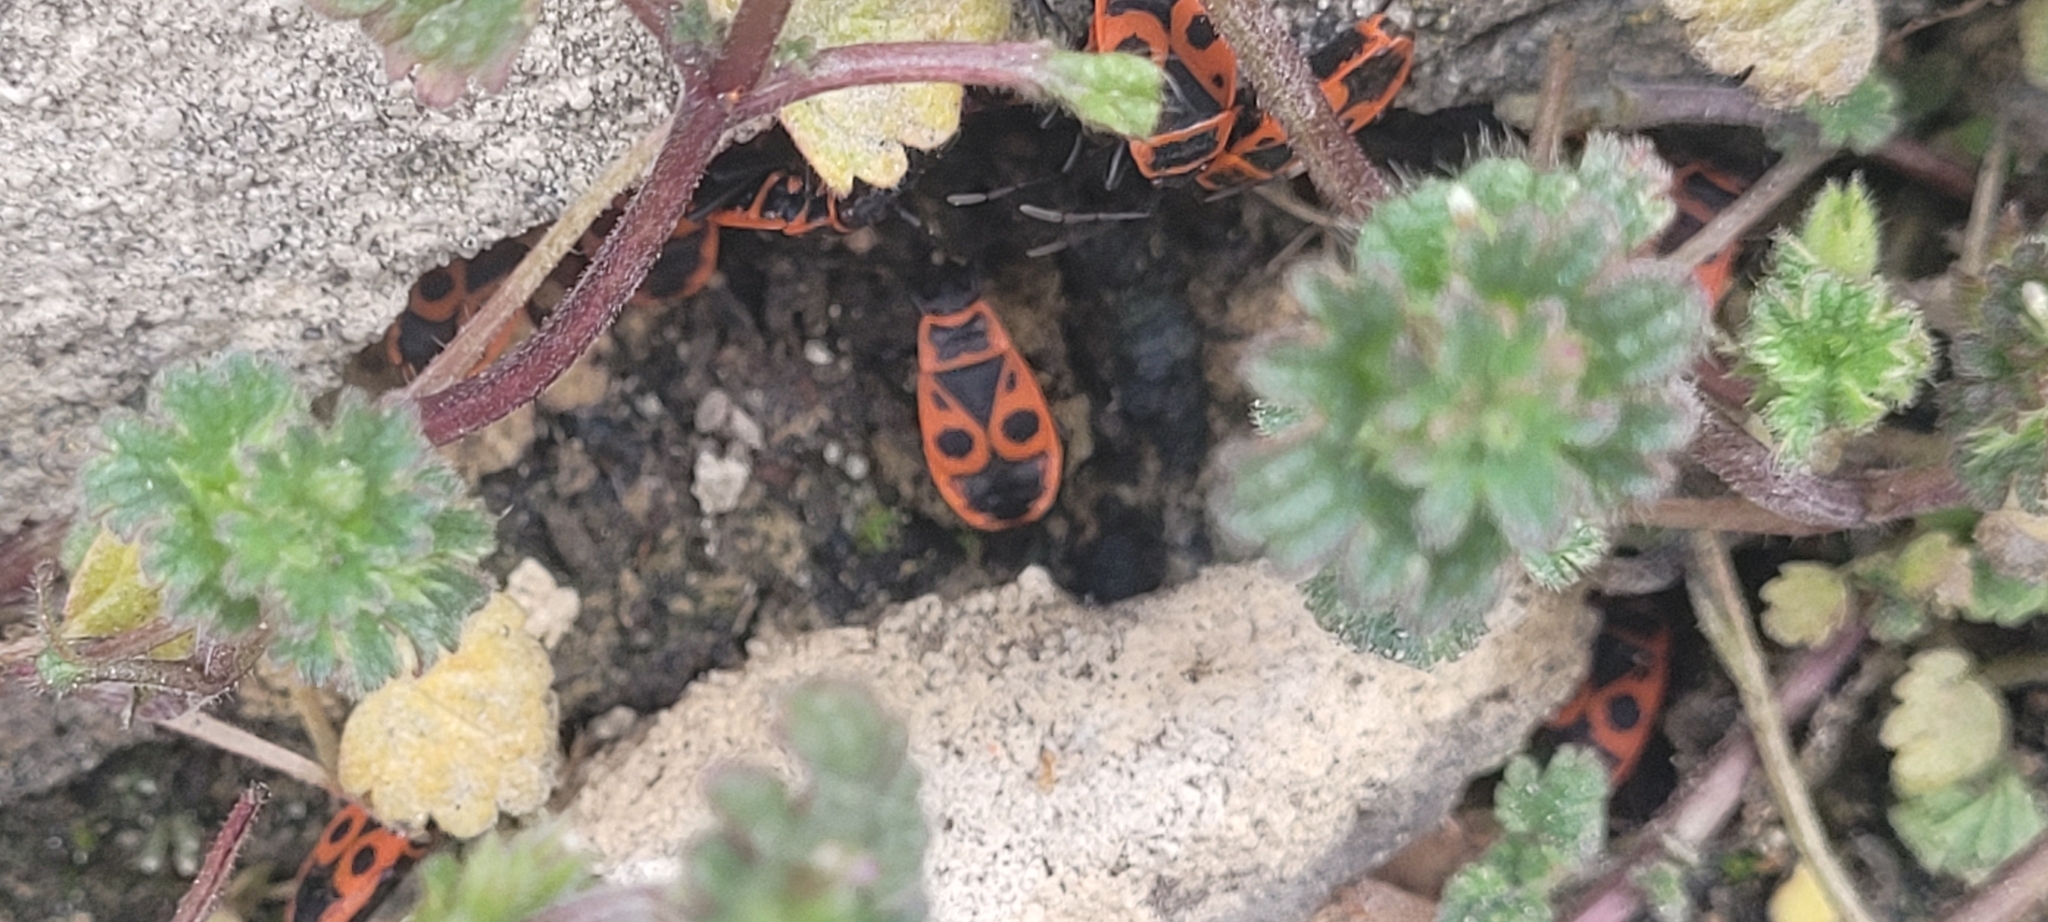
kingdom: Animalia
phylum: Arthropoda
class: Insecta
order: Hemiptera
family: Pyrrhocoridae
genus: Pyrrhocoris
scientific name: Pyrrhocoris apterus
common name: Firebug
